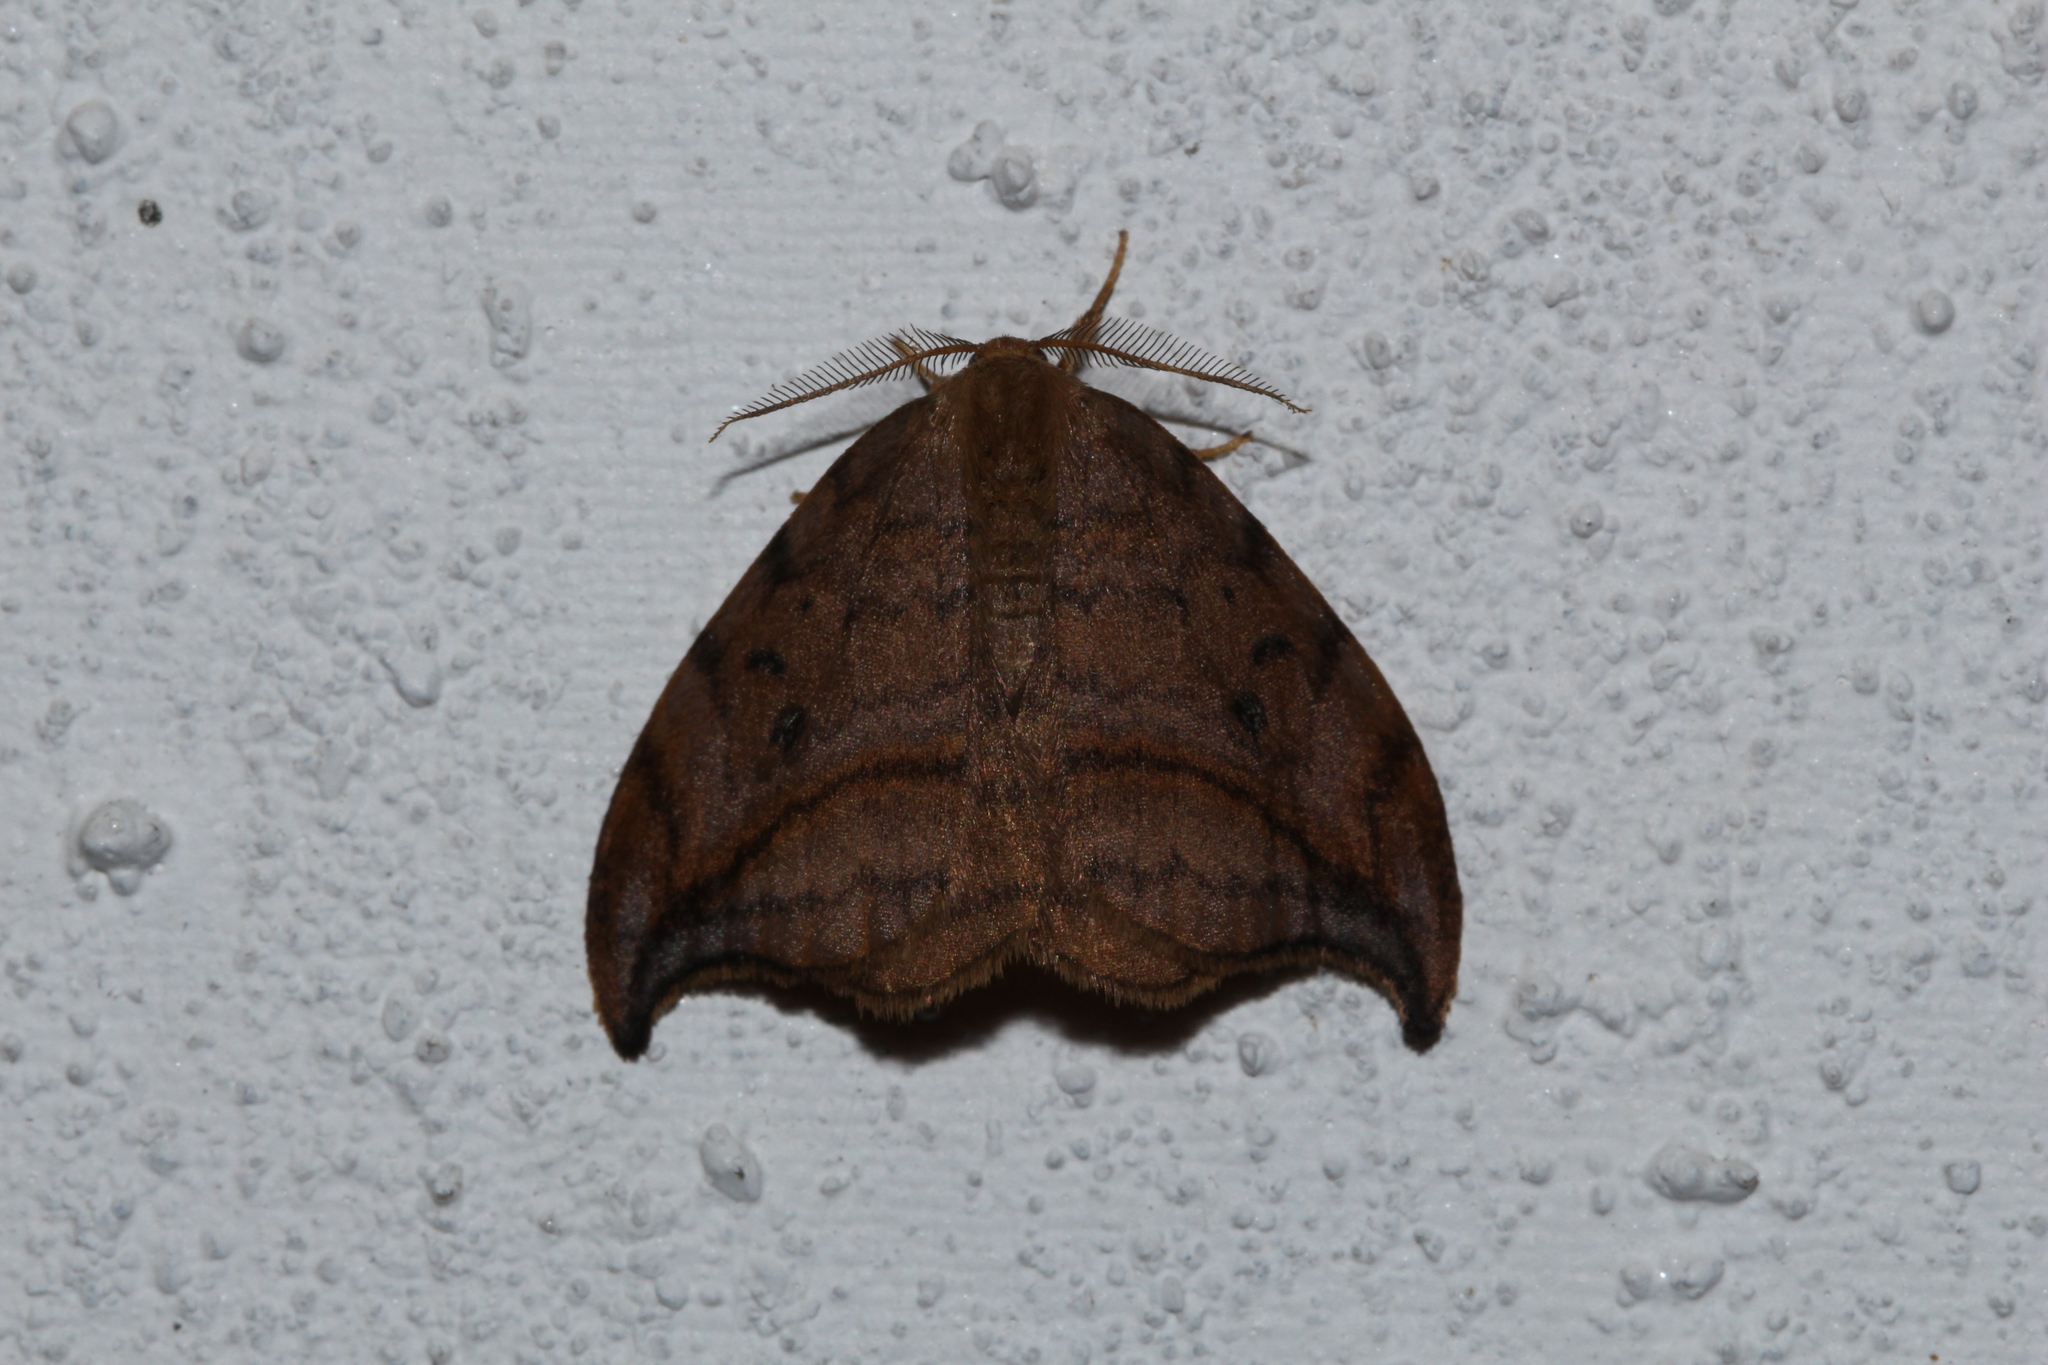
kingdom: Animalia
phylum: Arthropoda
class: Insecta
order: Lepidoptera
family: Drepanidae
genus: Drepana
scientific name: Drepana curvatula
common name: Dusky hook-tip
